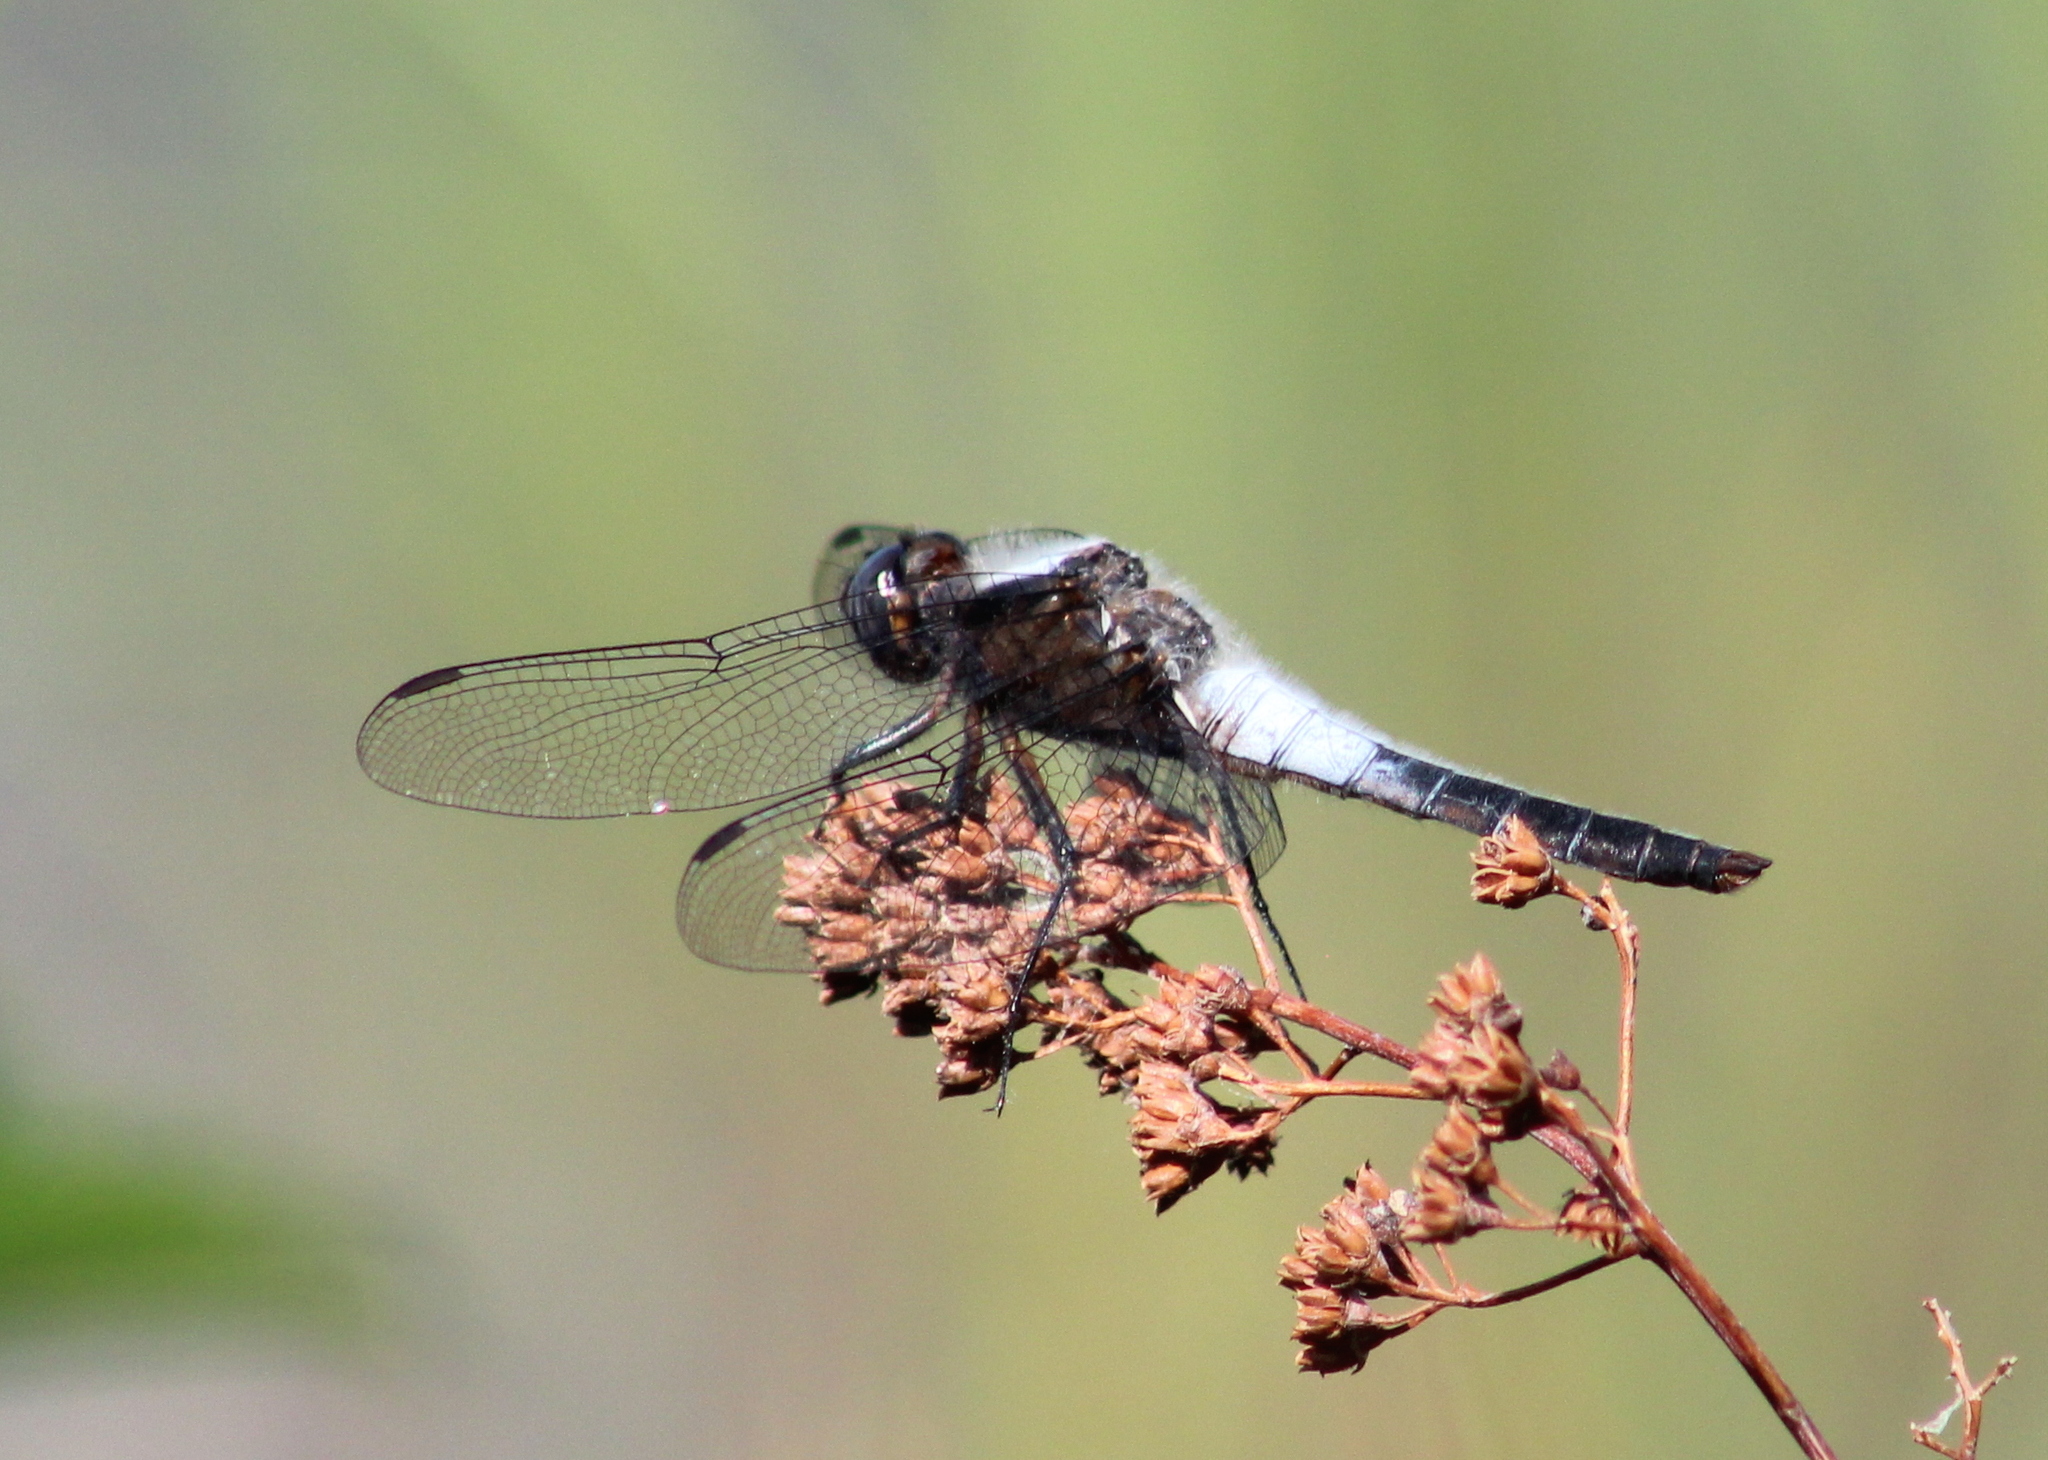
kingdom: Animalia
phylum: Arthropoda
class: Insecta
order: Odonata
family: Libellulidae
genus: Ladona
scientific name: Ladona julia
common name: Chalk-fronted corporal
